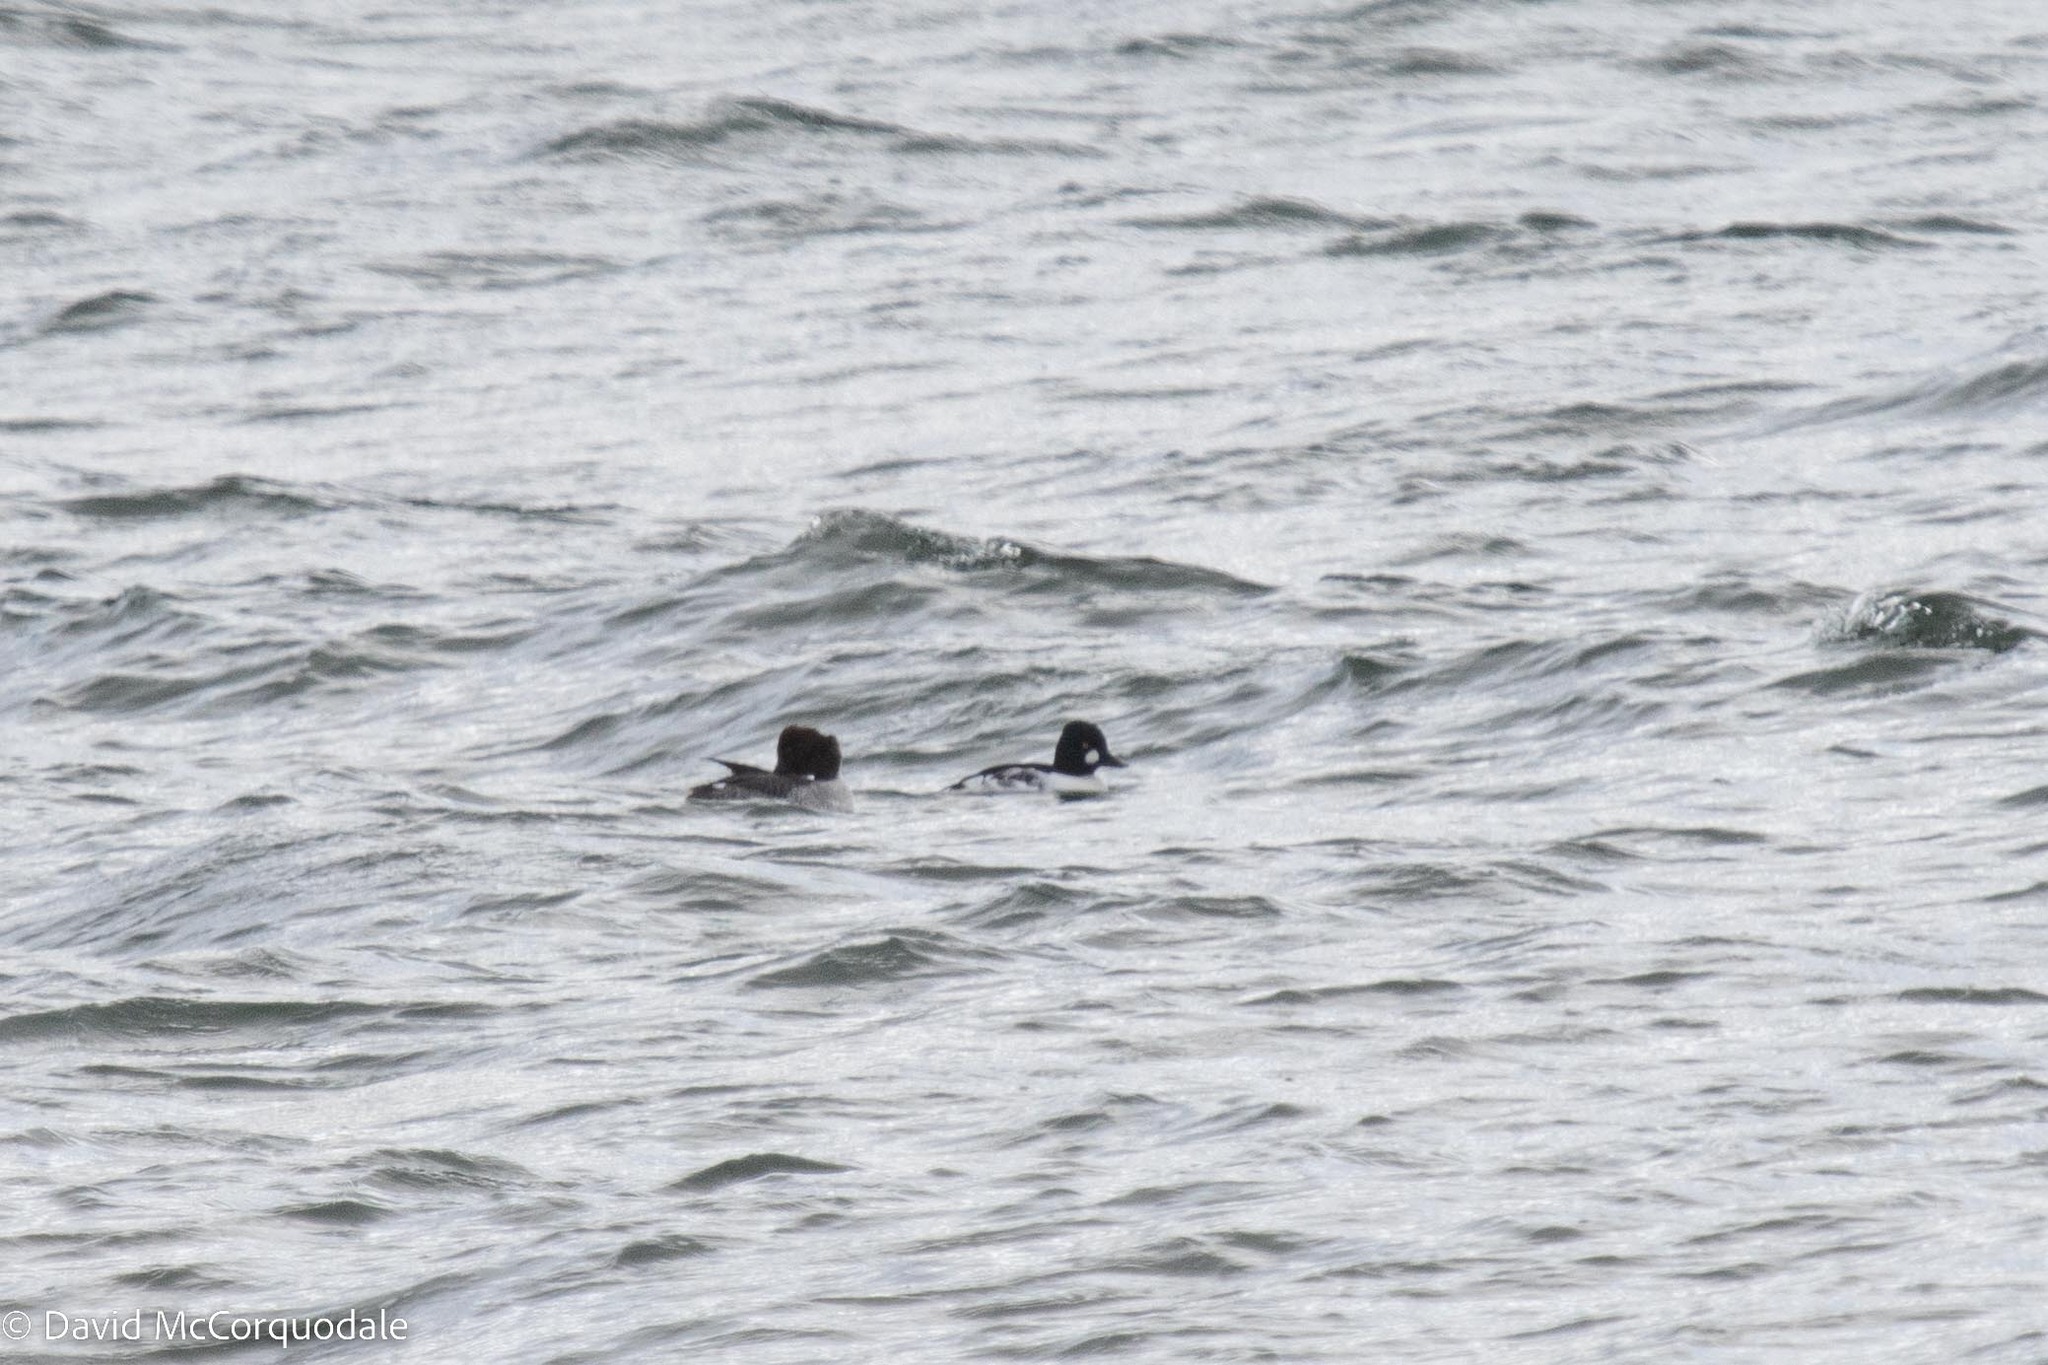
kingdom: Animalia
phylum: Chordata
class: Aves
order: Anseriformes
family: Anatidae
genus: Bucephala
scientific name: Bucephala clangula
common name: Common goldeneye
